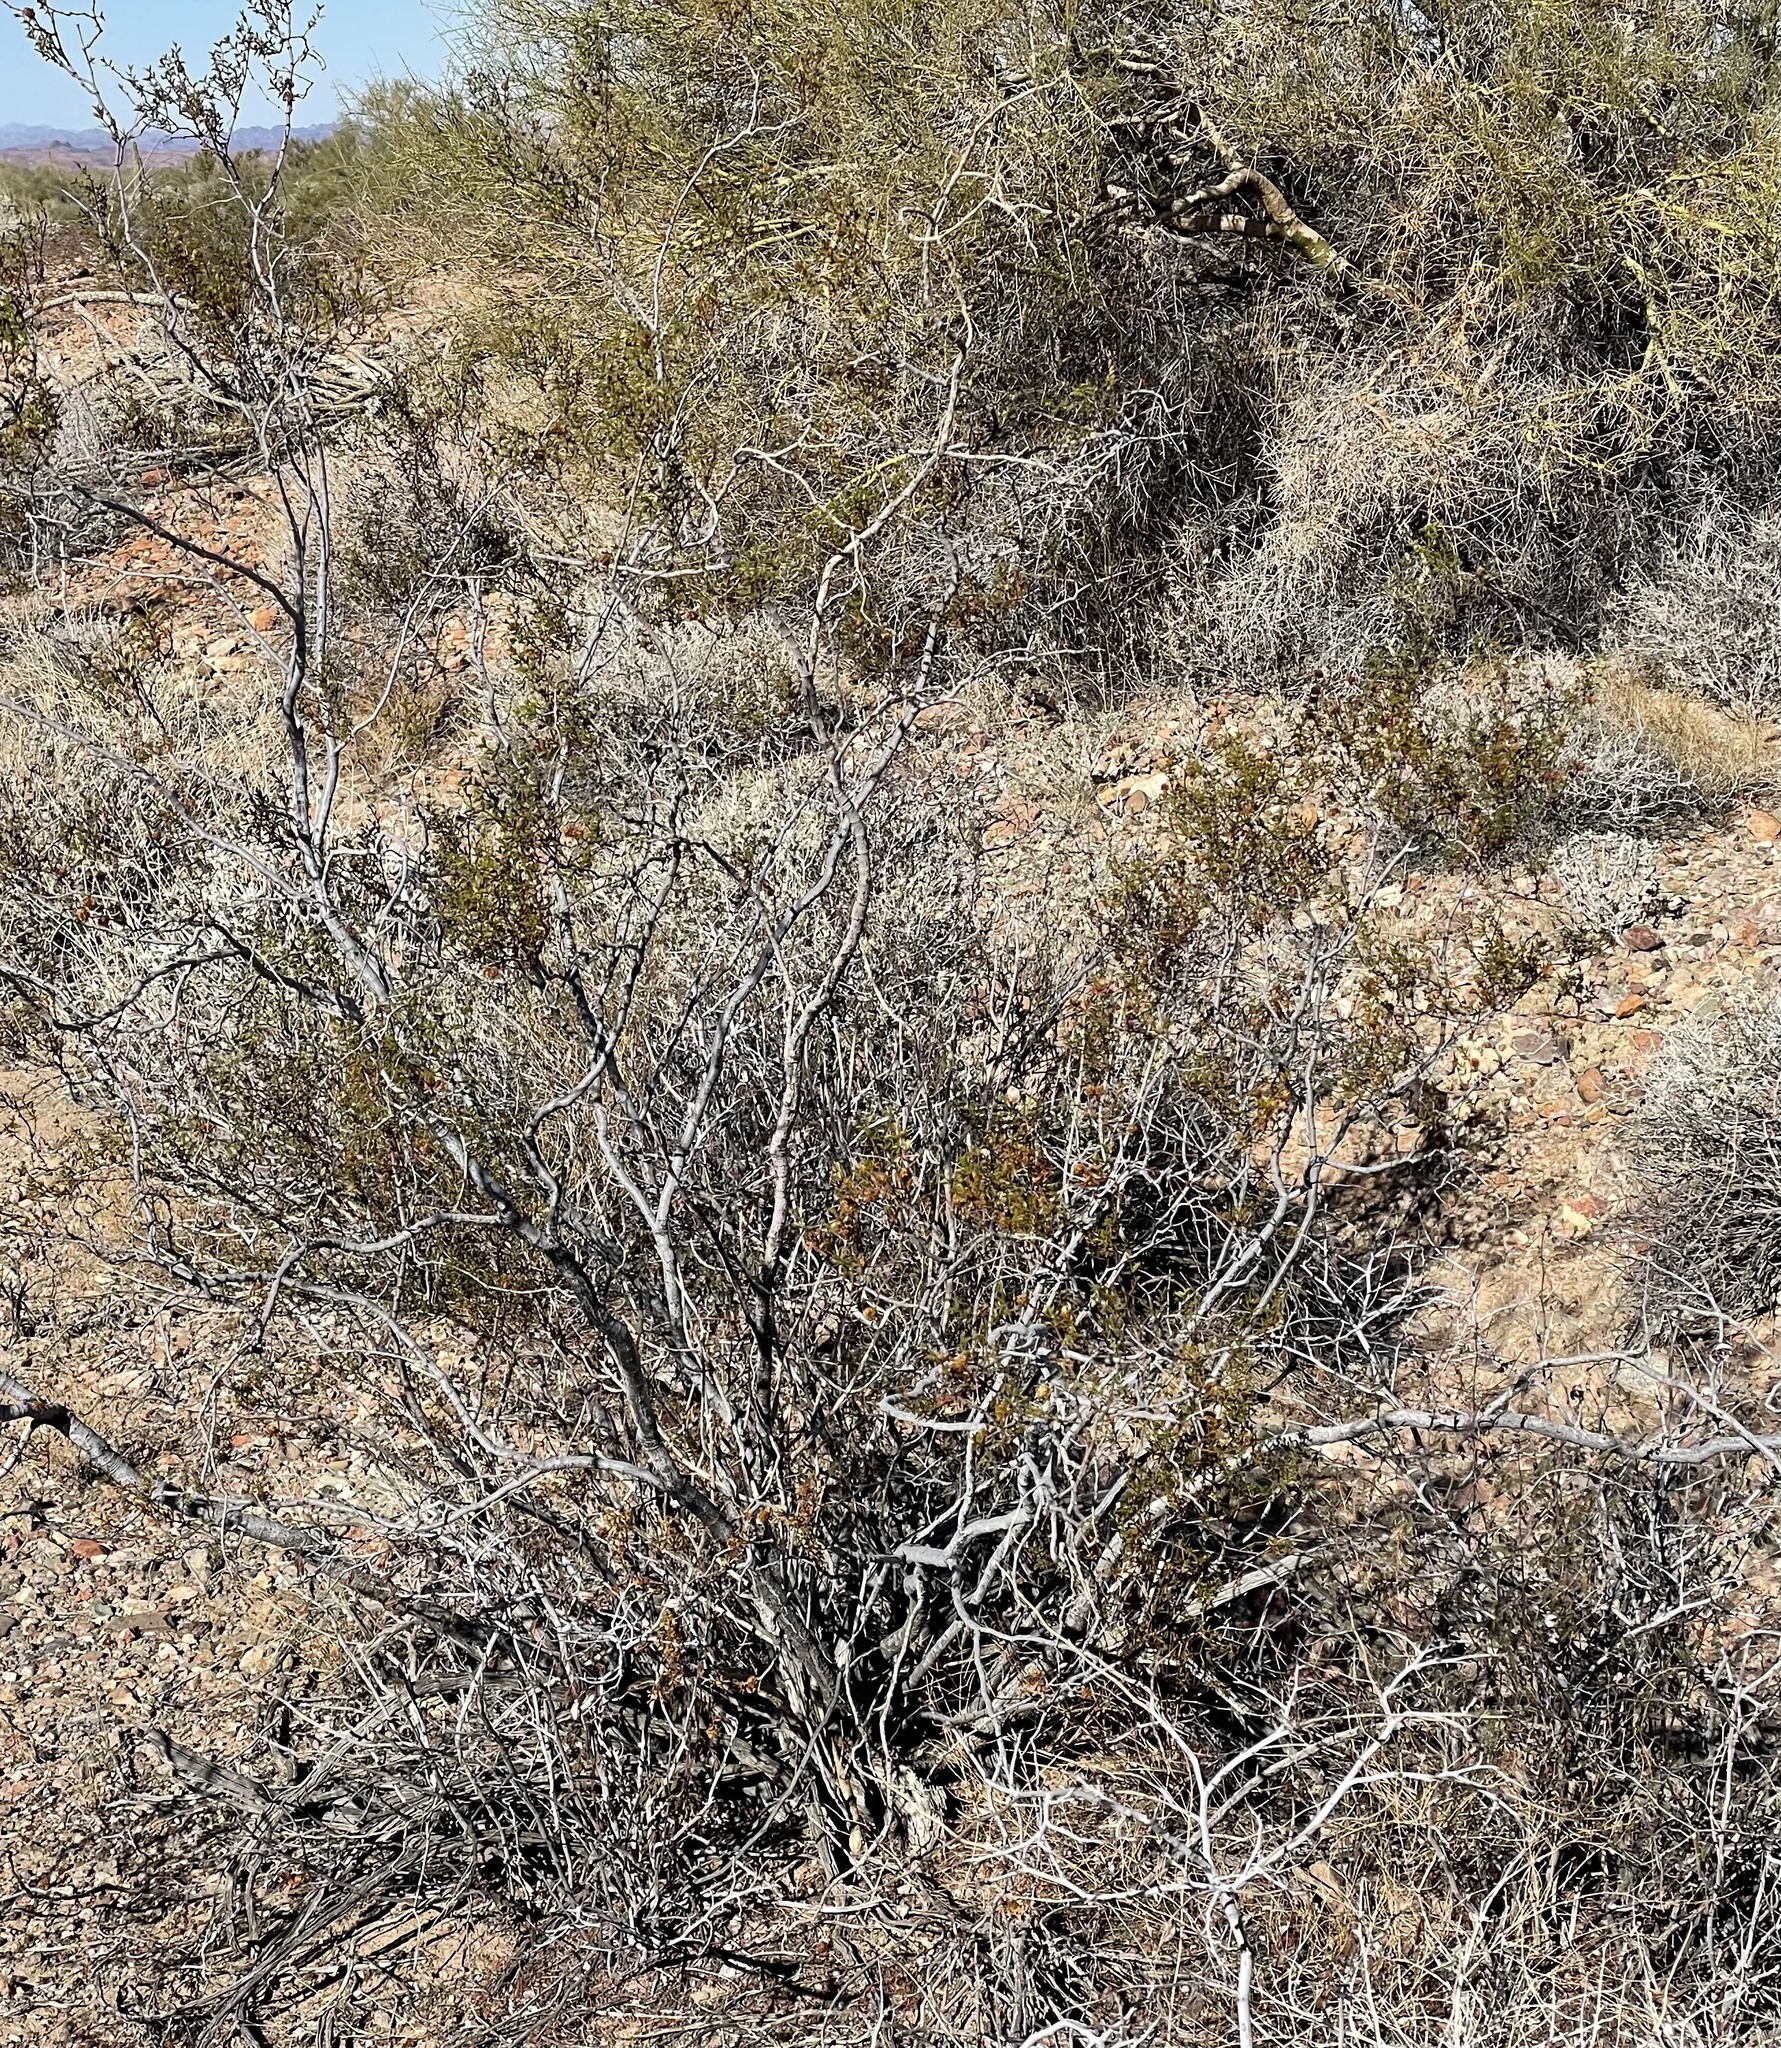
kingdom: Animalia
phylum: Arthropoda
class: Insecta
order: Diptera
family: Cecidomyiidae
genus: Asphondylia
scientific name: Asphondylia rosetta
